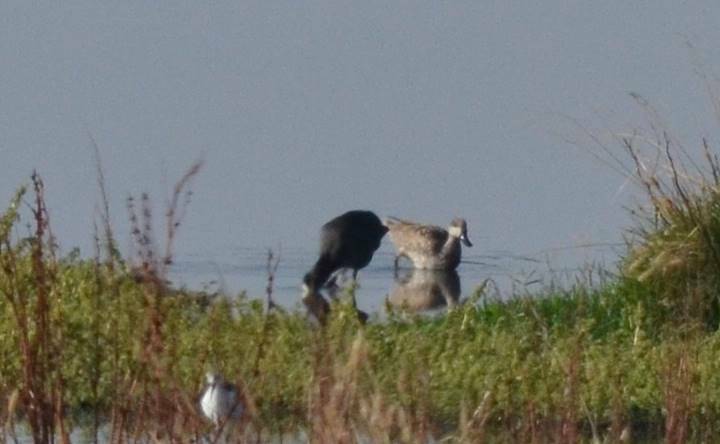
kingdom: Animalia
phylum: Chordata
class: Aves
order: Anseriformes
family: Anatidae
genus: Marmaronetta
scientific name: Marmaronetta angustirostris
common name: Marbled duck
